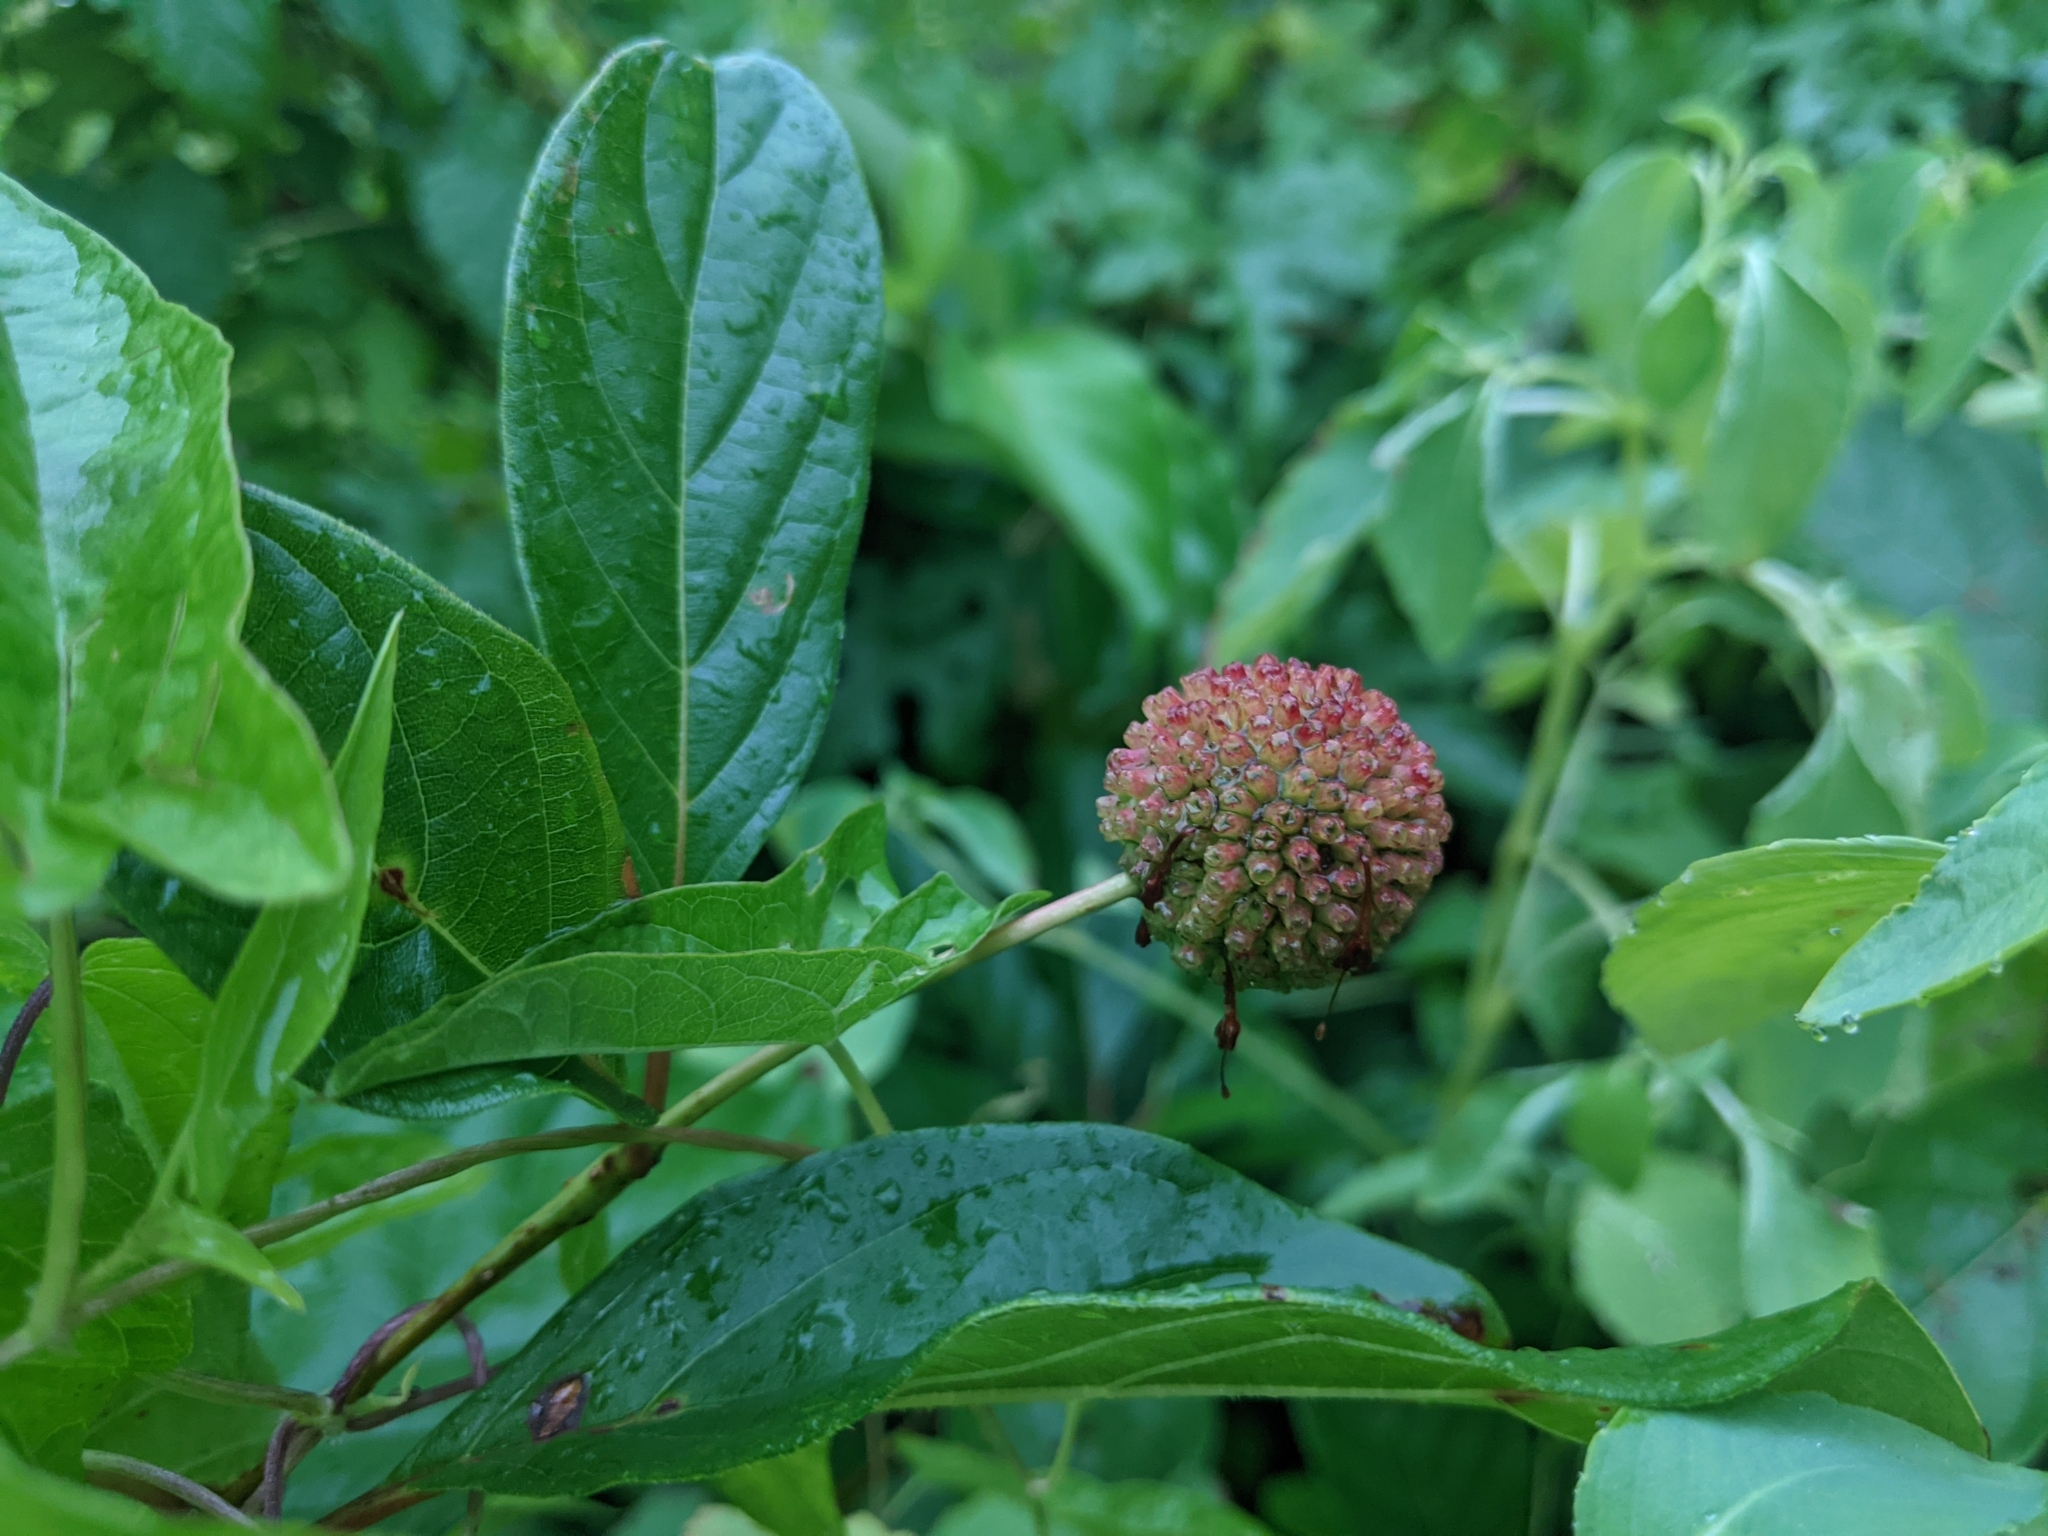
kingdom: Plantae
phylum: Tracheophyta
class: Magnoliopsida
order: Gentianales
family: Rubiaceae
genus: Cephalanthus
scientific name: Cephalanthus occidentalis
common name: Button-willow
